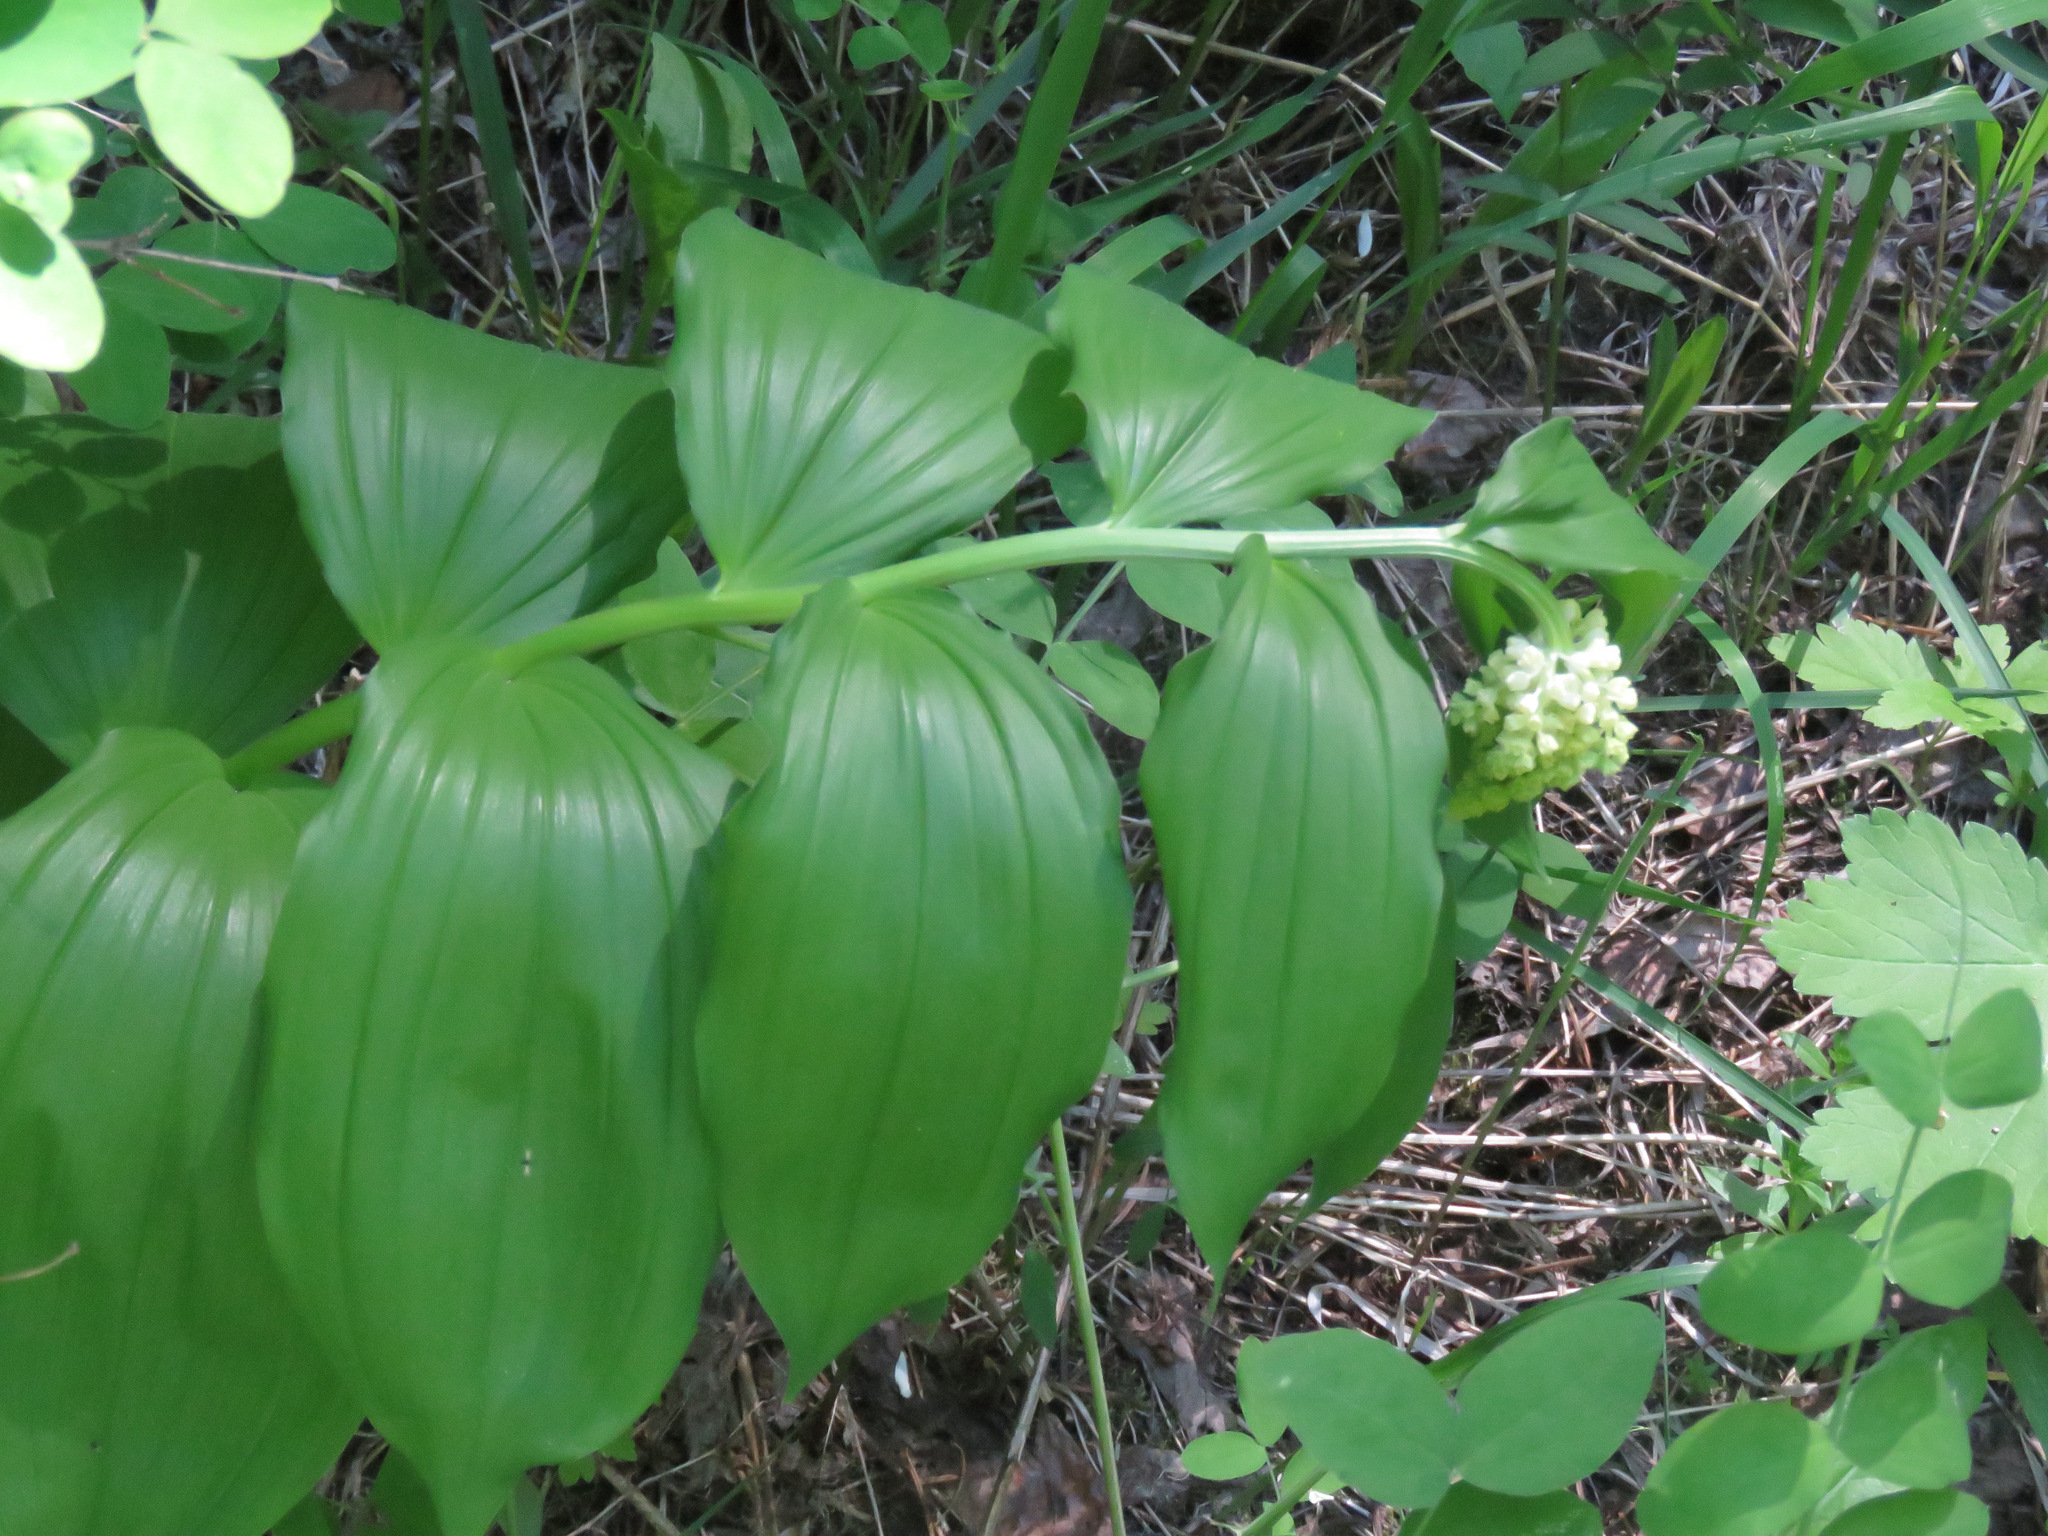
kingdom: Plantae
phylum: Tracheophyta
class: Liliopsida
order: Asparagales
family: Asparagaceae
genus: Maianthemum
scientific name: Maianthemum racemosum
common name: False spikenard
